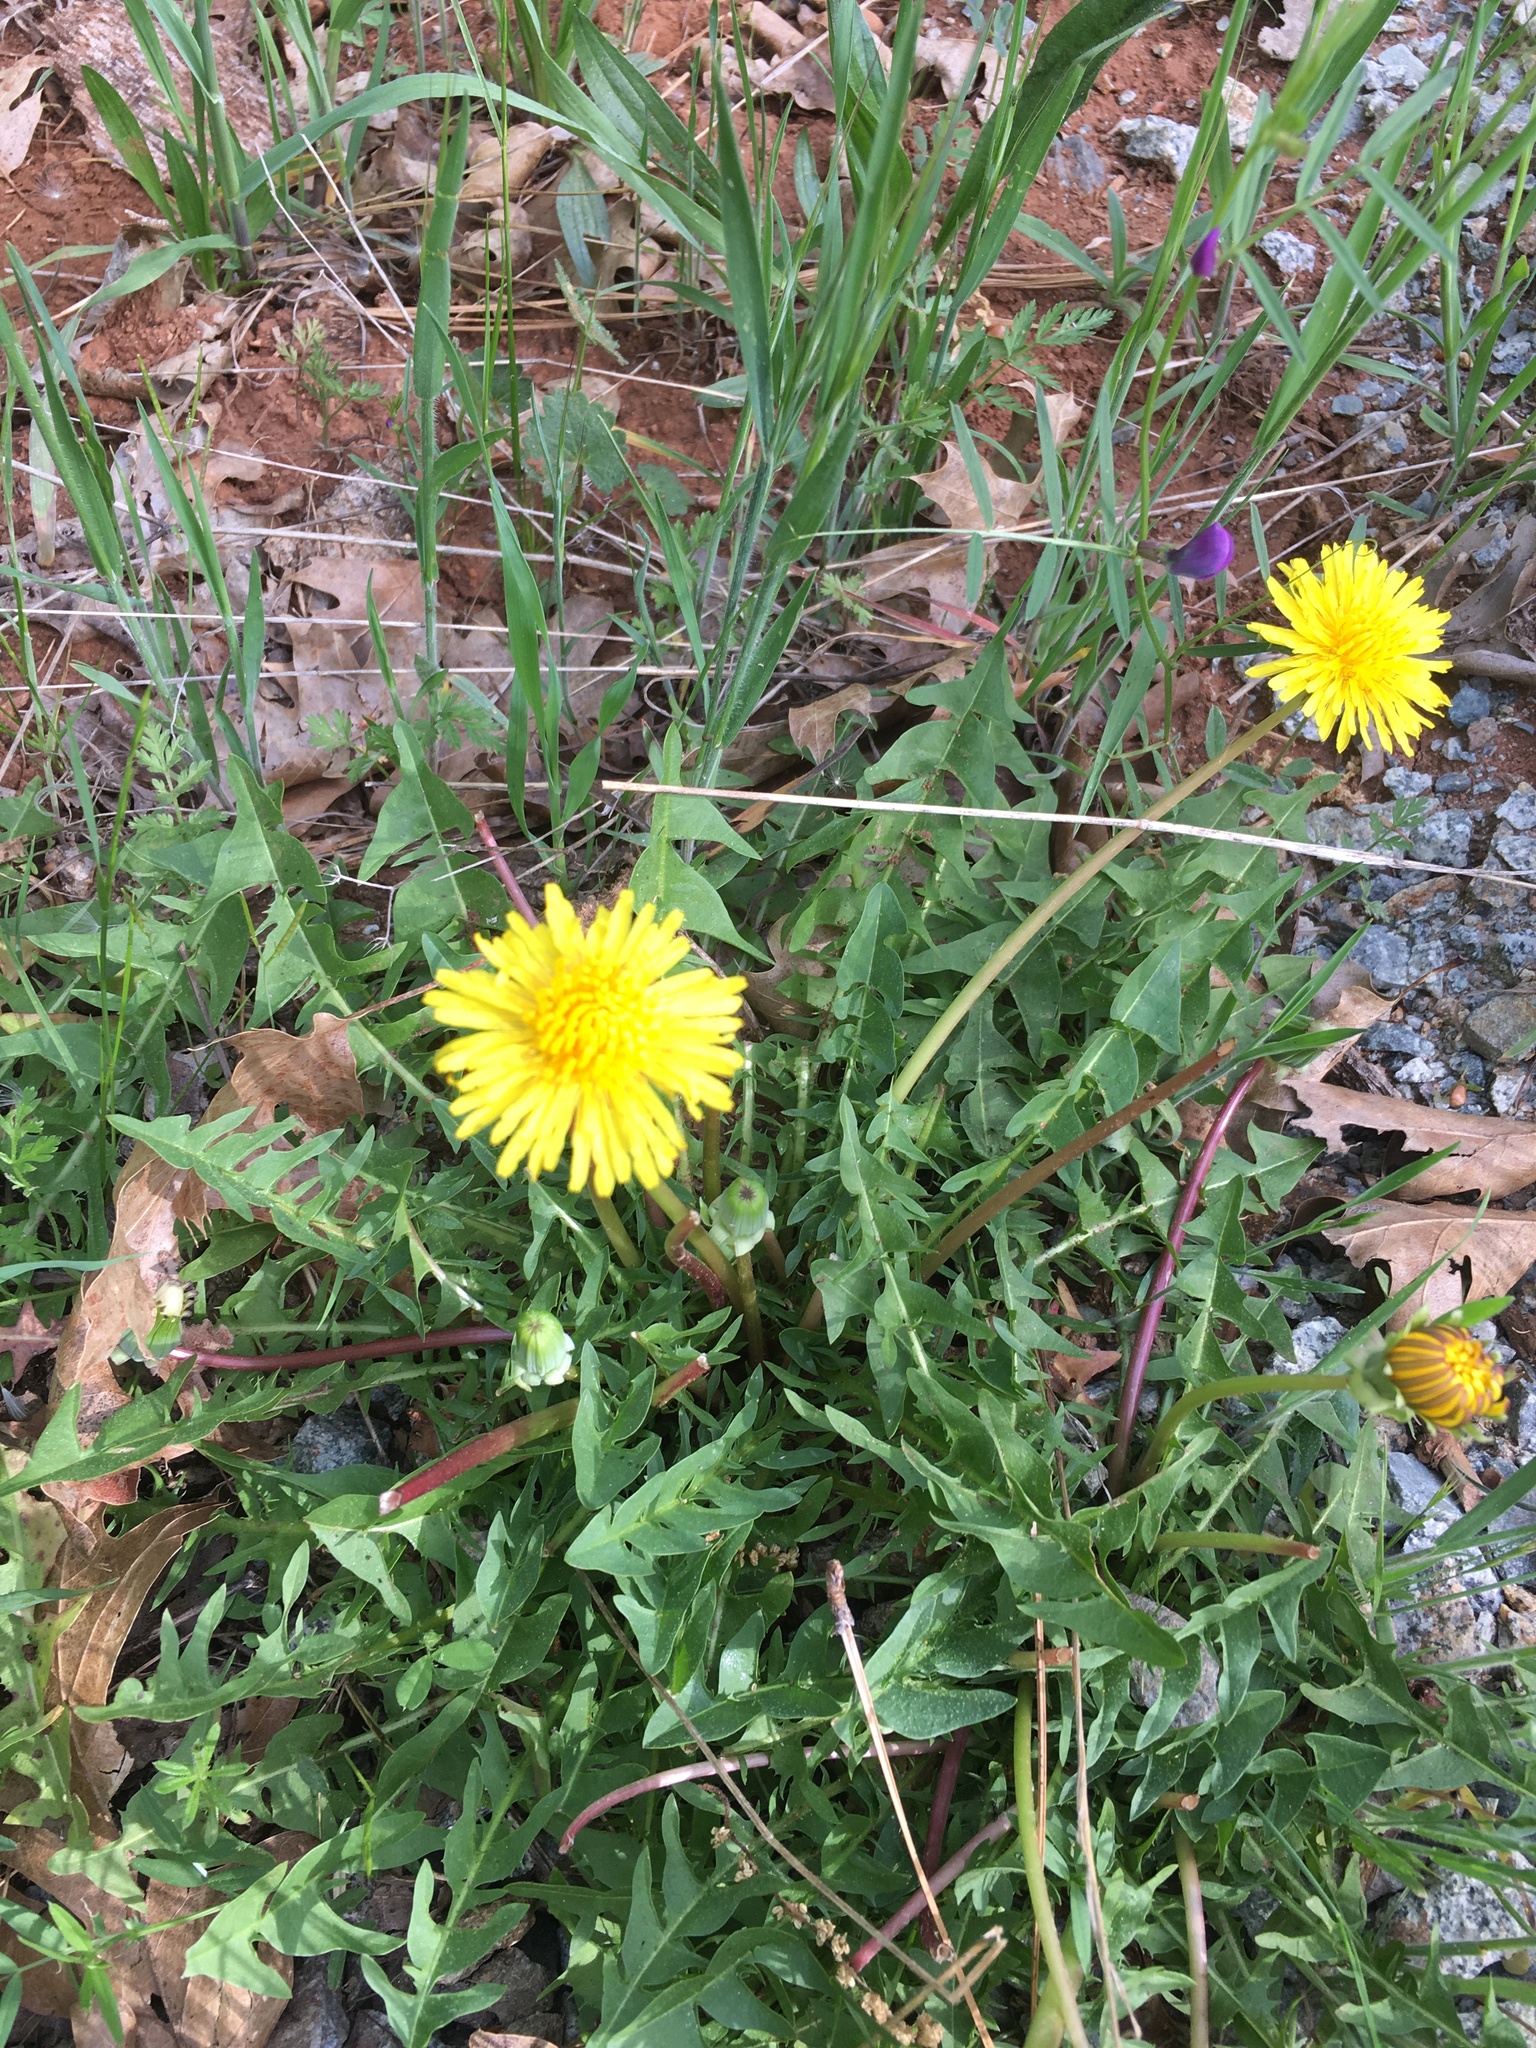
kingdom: Plantae
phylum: Tracheophyta
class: Magnoliopsida
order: Asterales
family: Asteraceae
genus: Taraxacum
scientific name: Taraxacum officinale
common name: Common dandelion
